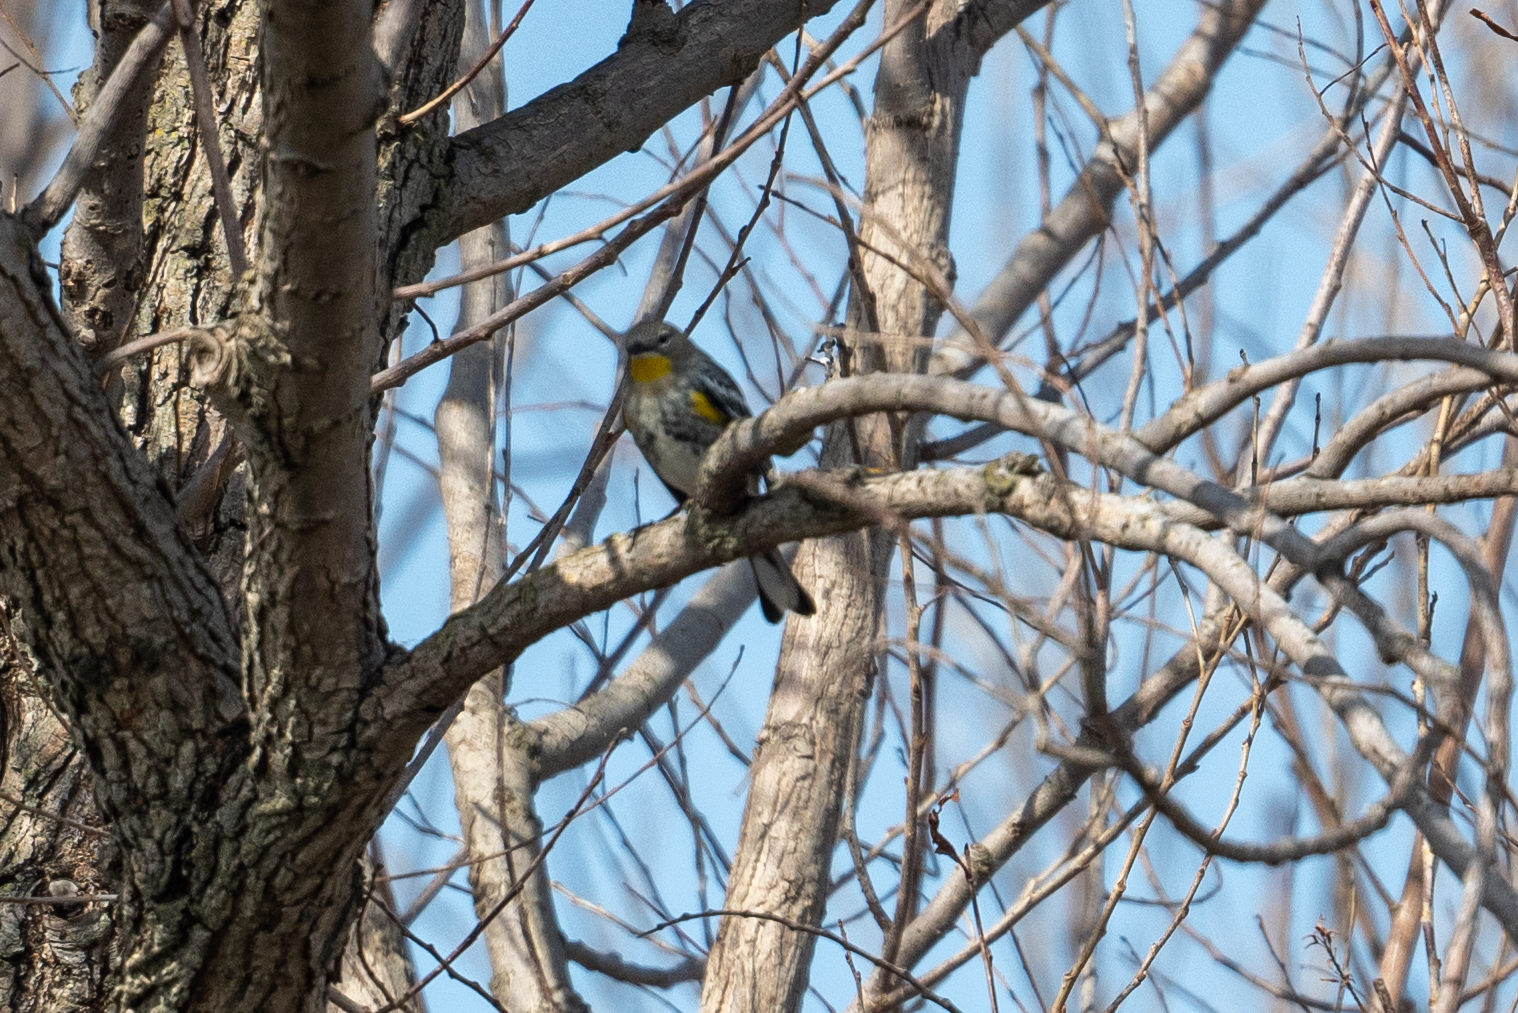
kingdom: Animalia
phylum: Chordata
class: Aves
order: Passeriformes
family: Parulidae
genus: Setophaga
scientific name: Setophaga coronata
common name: Myrtle warbler
